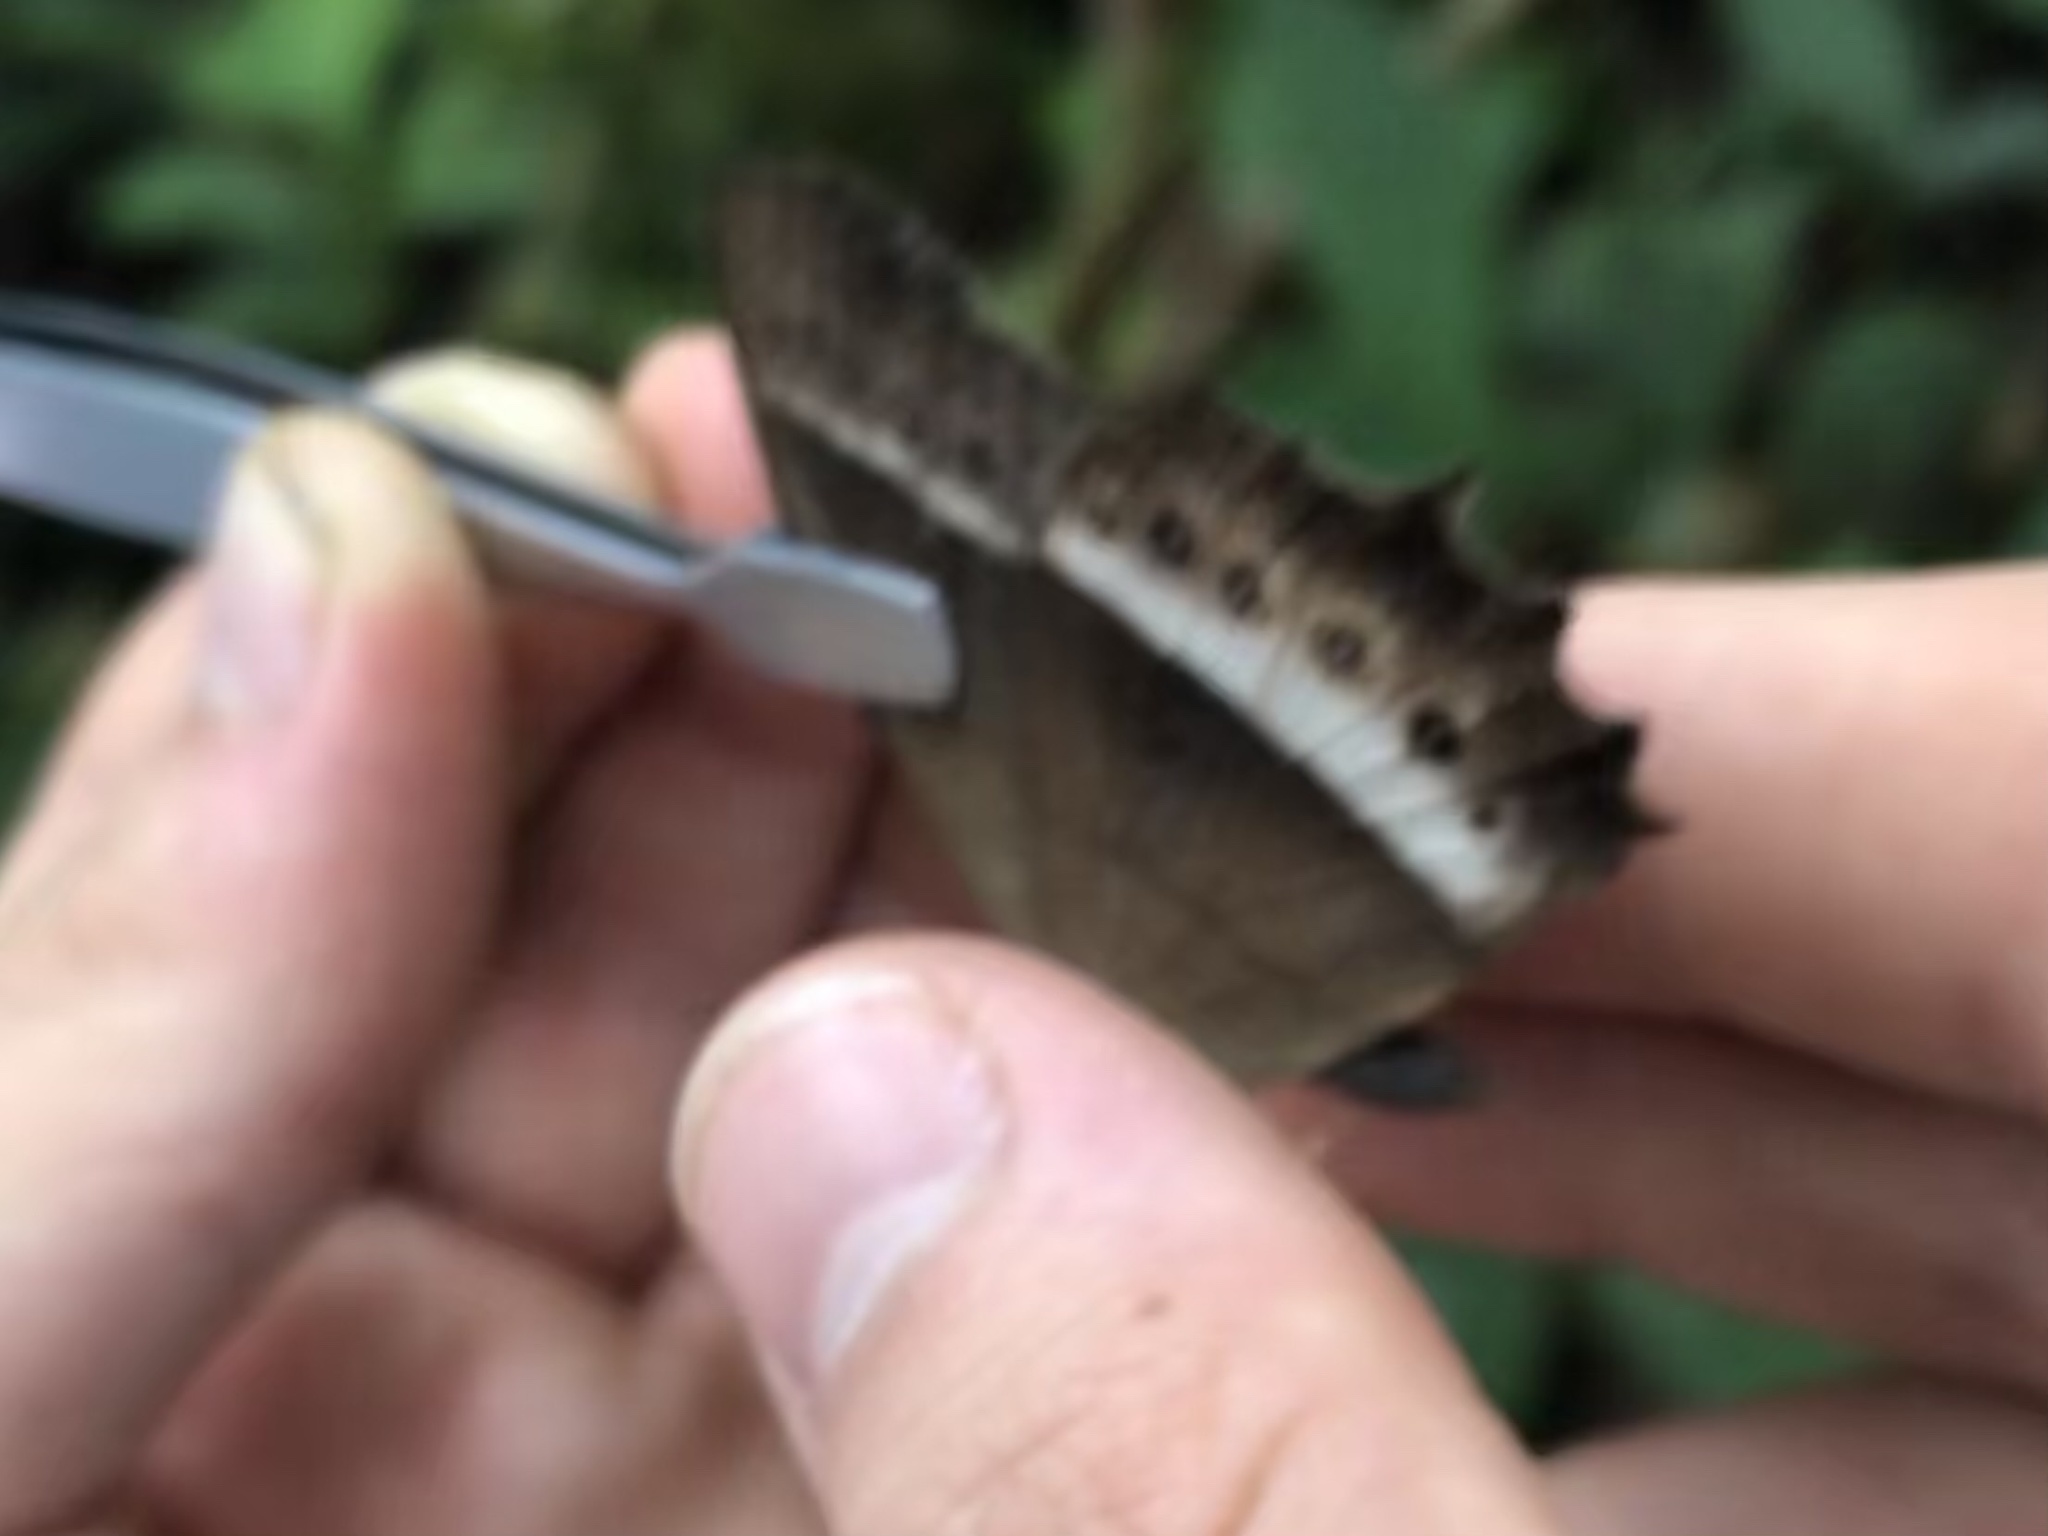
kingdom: Animalia
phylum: Arthropoda
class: Insecta
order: Lepidoptera
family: Nymphalidae
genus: Harjesia
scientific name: Harjesia blanda
